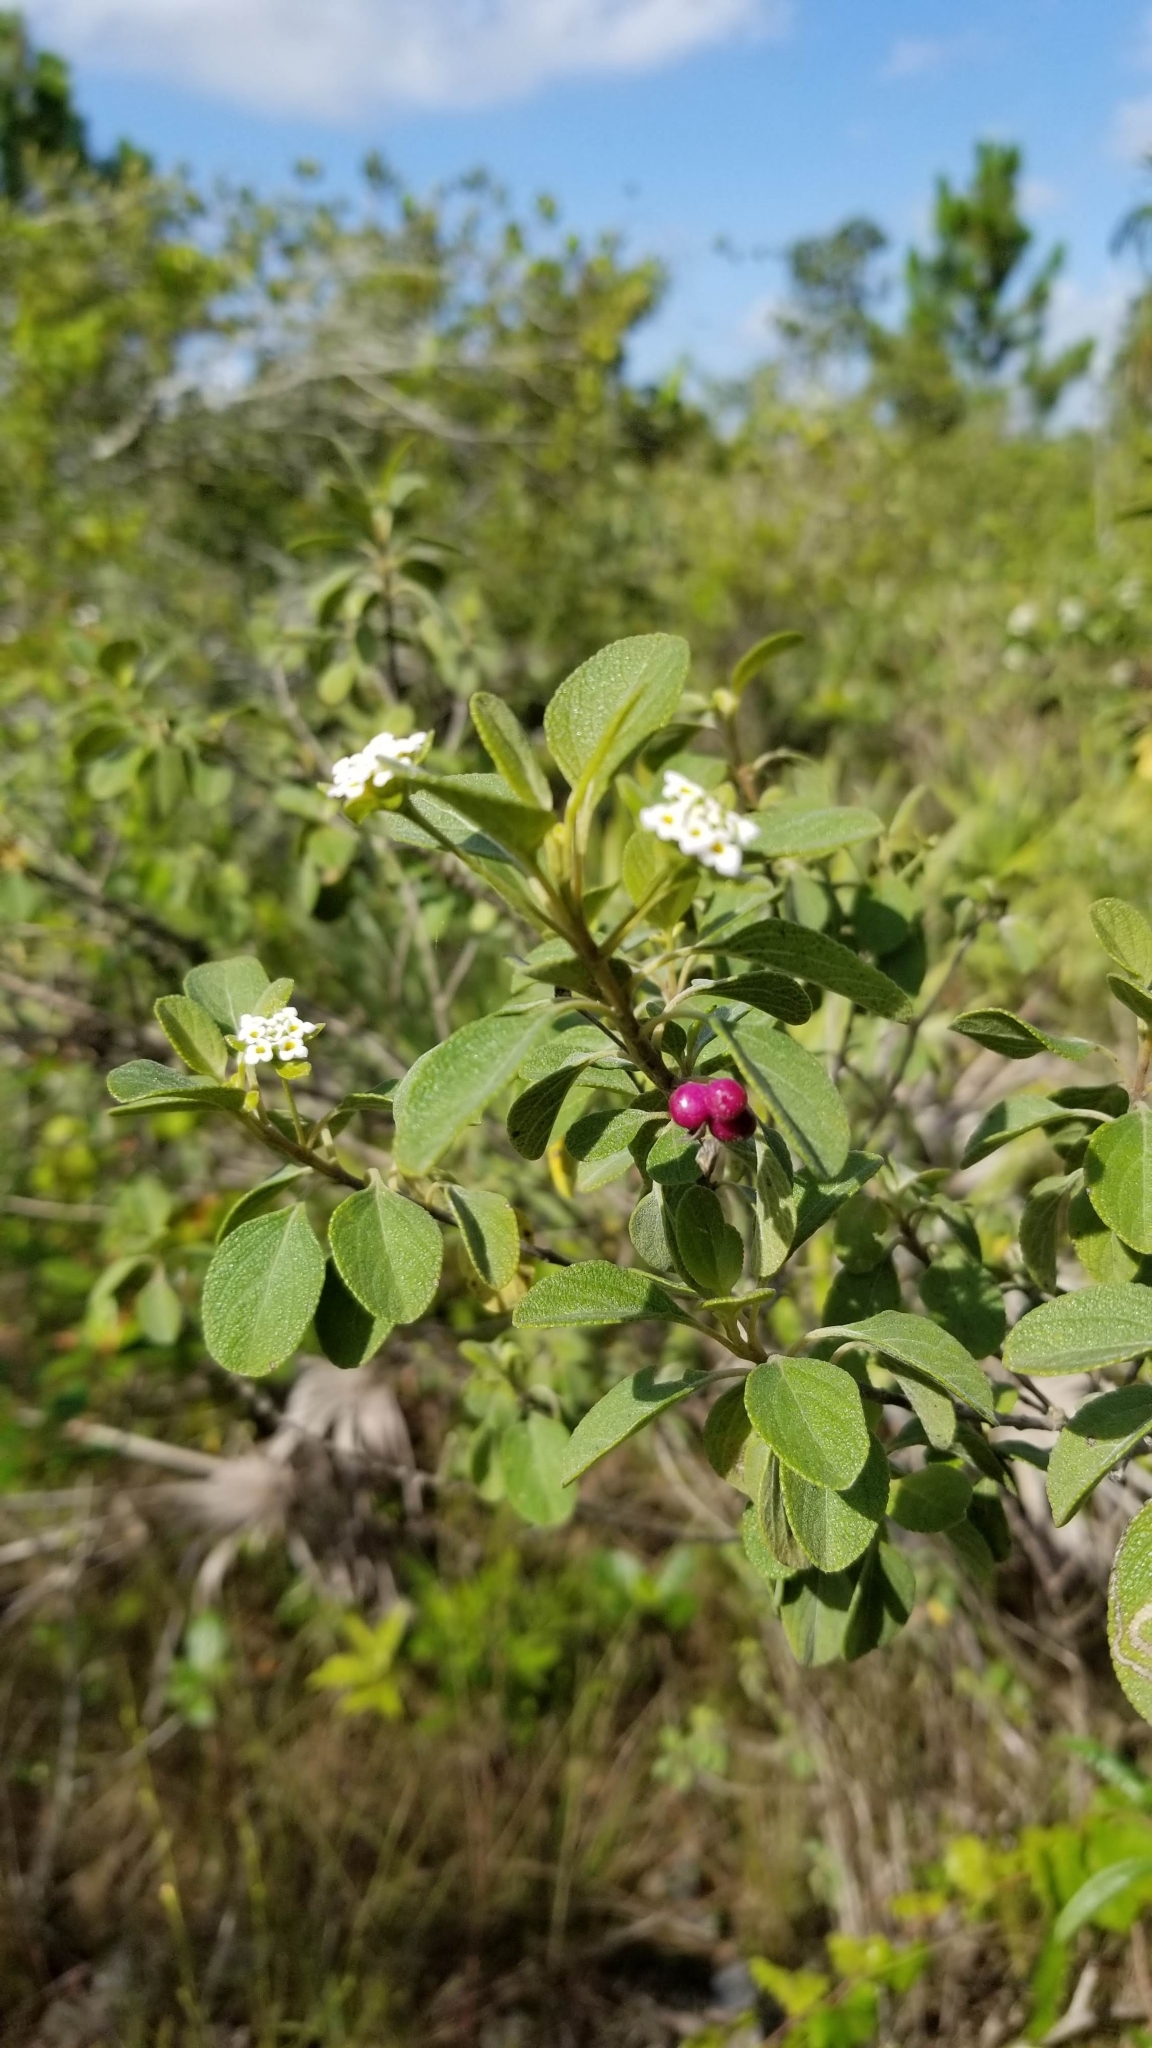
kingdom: Plantae
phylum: Tracheophyta
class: Magnoliopsida
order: Lamiales
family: Verbenaceae
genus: Lantana
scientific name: Lantana involucrata
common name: Black sage
